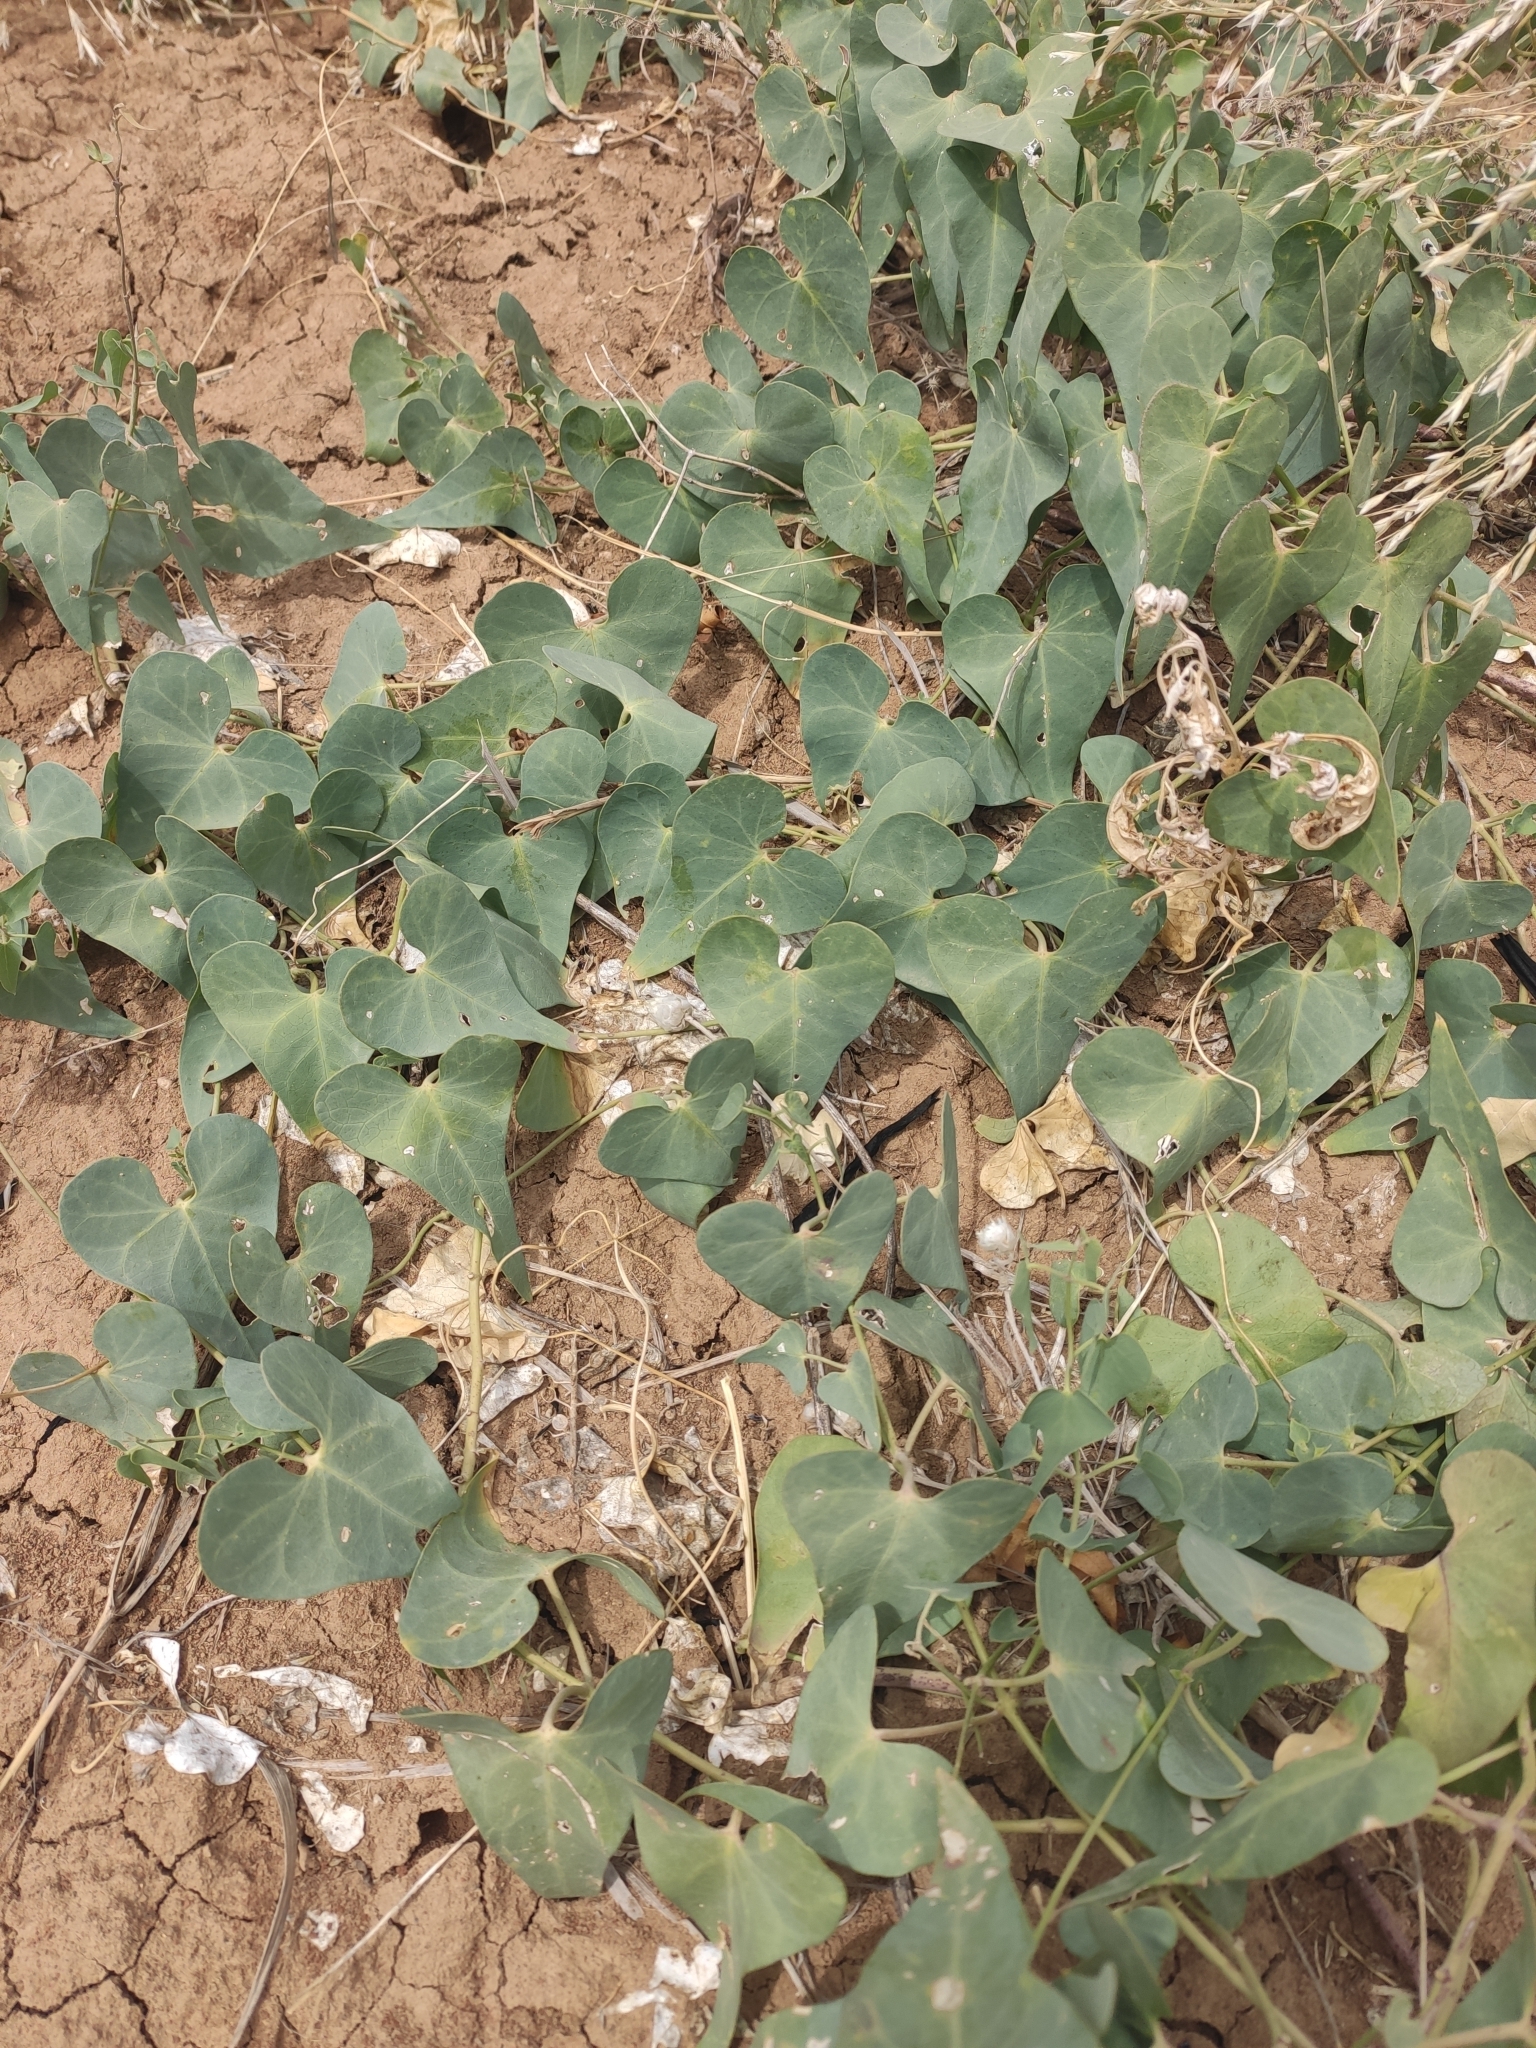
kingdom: Plantae
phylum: Tracheophyta
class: Magnoliopsida
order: Gentianales
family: Apocynaceae
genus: Cynanchum
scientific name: Cynanchum acutum
